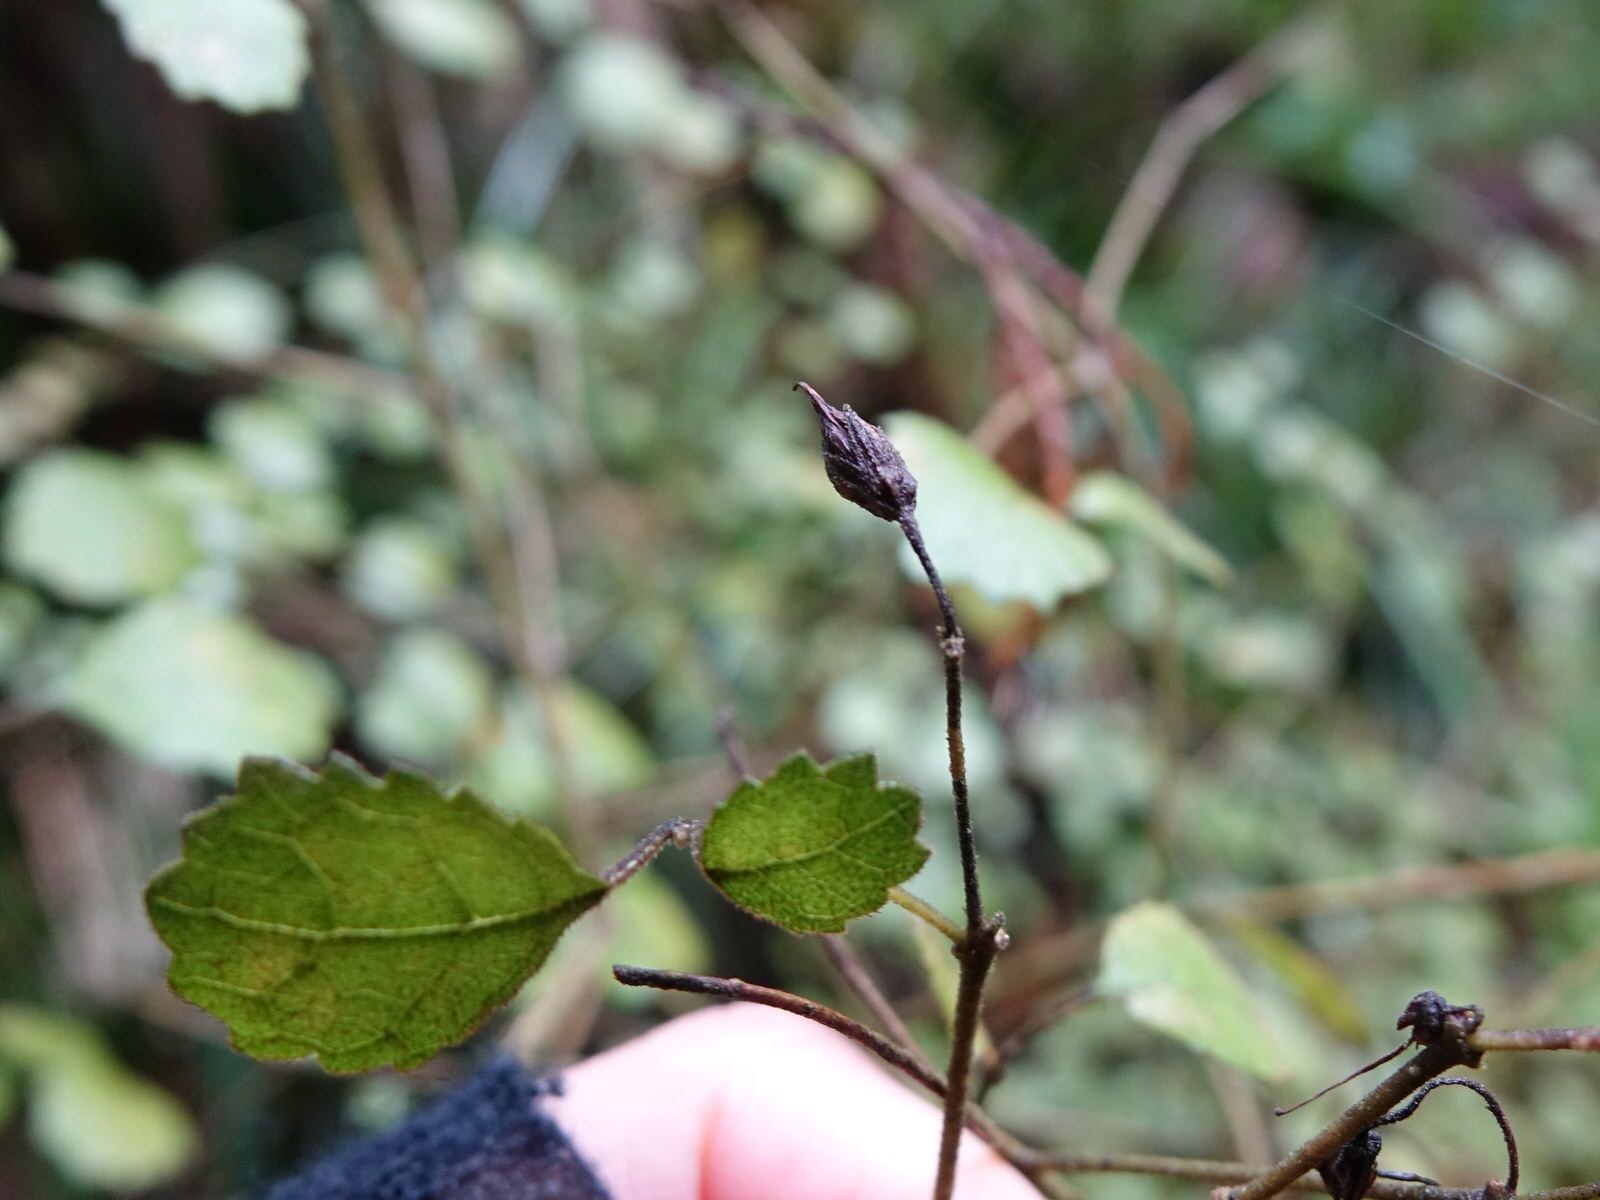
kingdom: Plantae
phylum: Tracheophyta
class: Magnoliopsida
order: Lamiales
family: Gesneriaceae
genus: Rhabdothamnus
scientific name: Rhabdothamnus solandri
